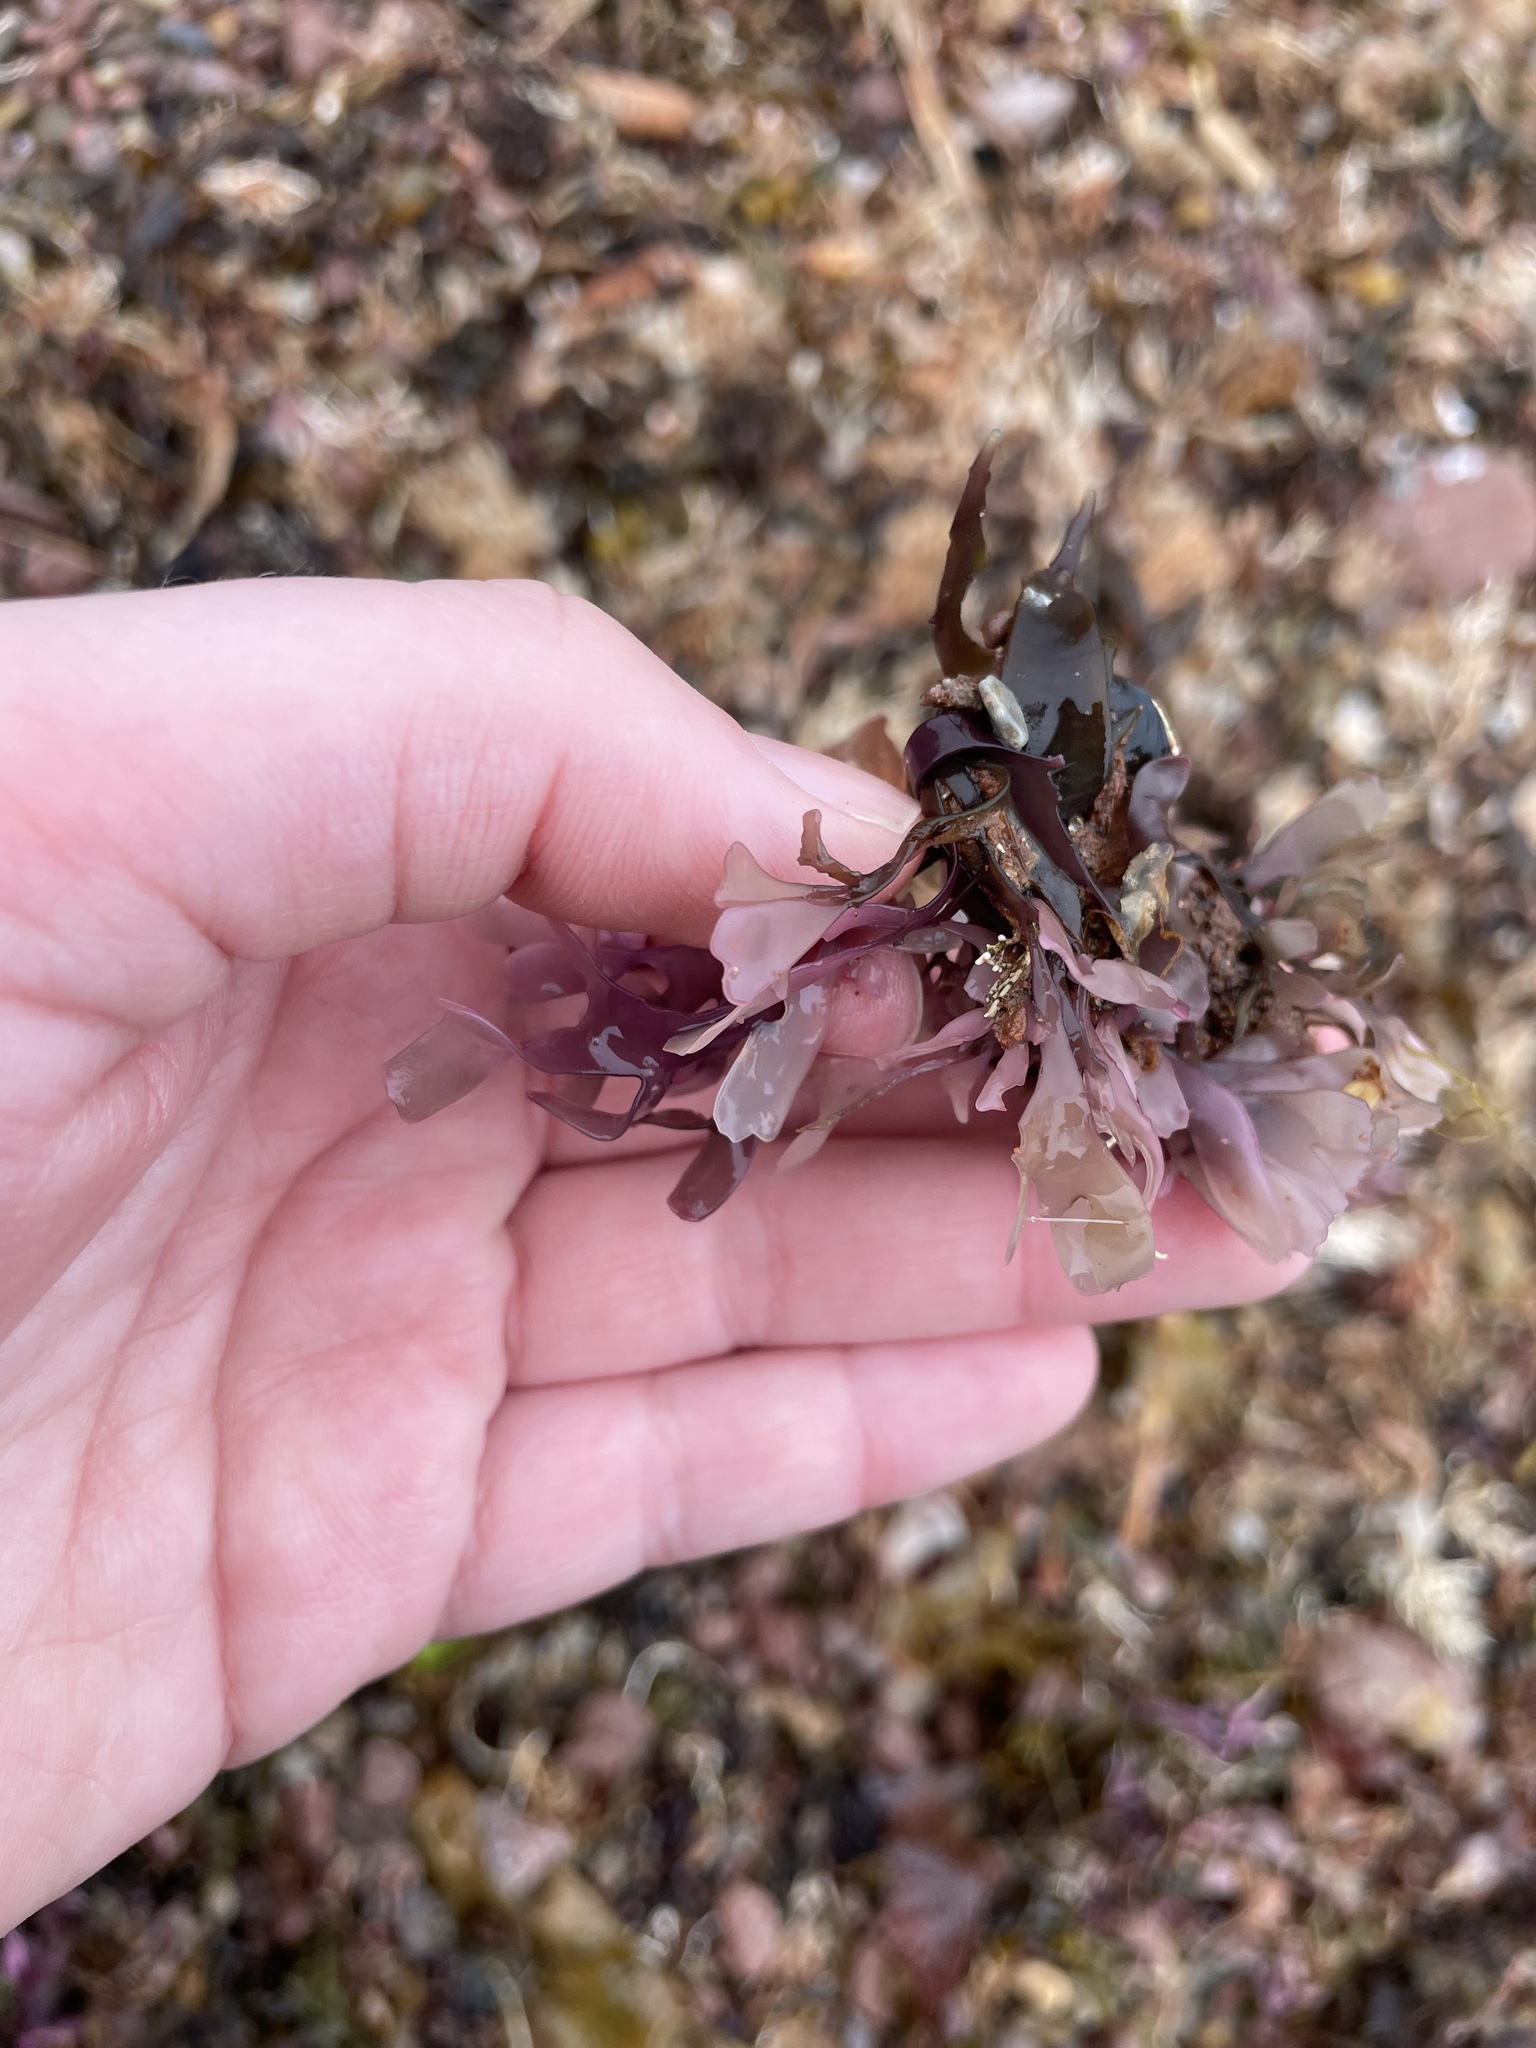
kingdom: Plantae
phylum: Rhodophyta
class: Florideophyceae
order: Gigartinales
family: Gigartinaceae
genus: Chondrus
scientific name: Chondrus crispus
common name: Carrageen
